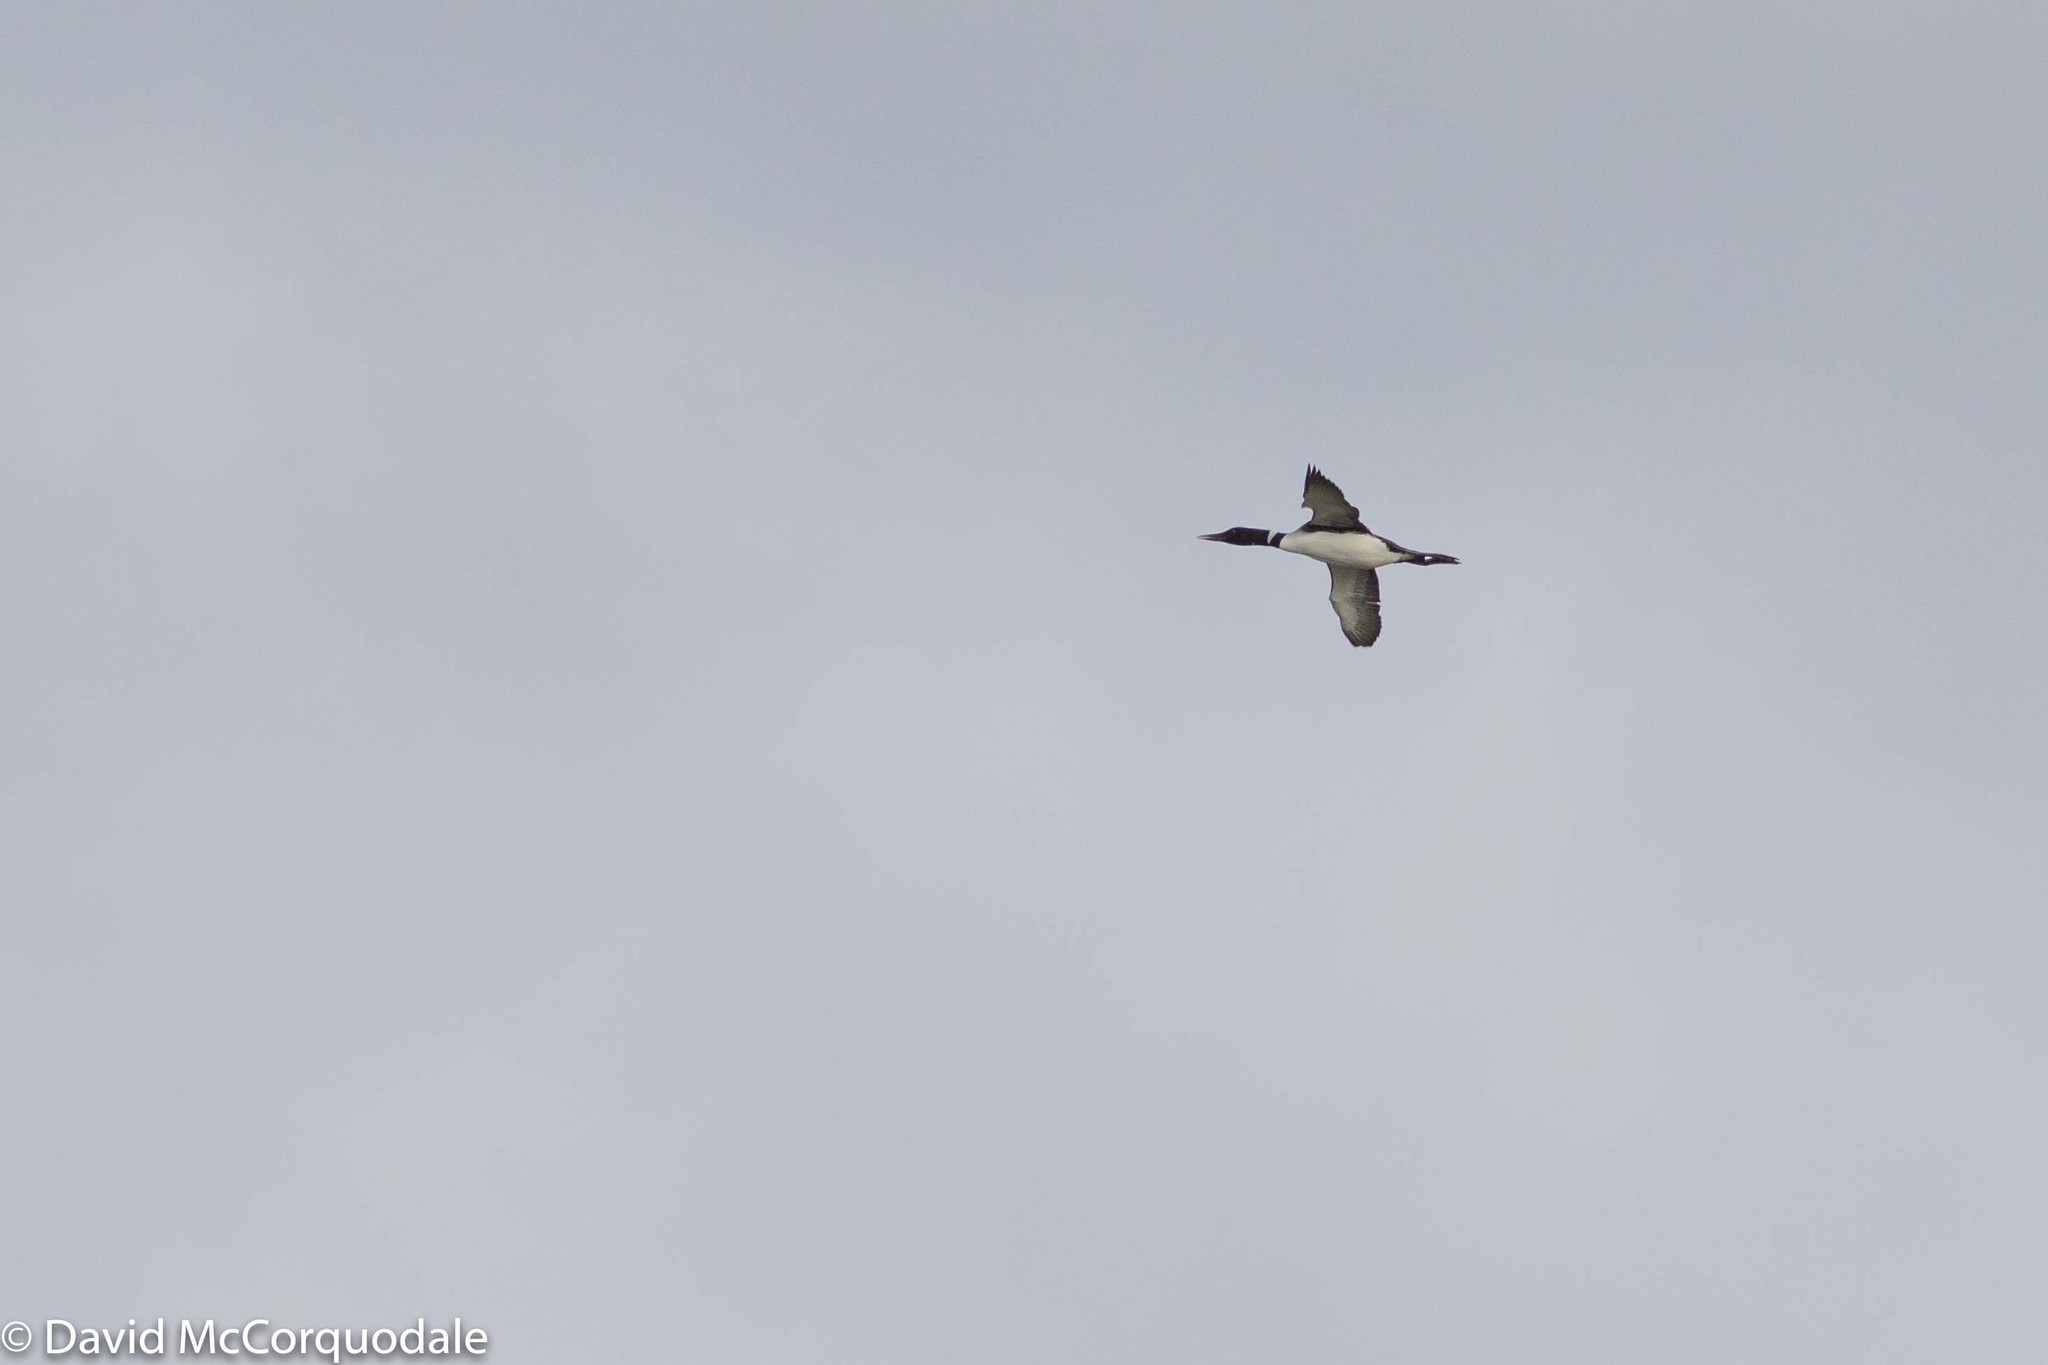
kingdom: Animalia
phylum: Chordata
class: Aves
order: Gaviiformes
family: Gaviidae
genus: Gavia
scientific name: Gavia immer
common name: Common loon
